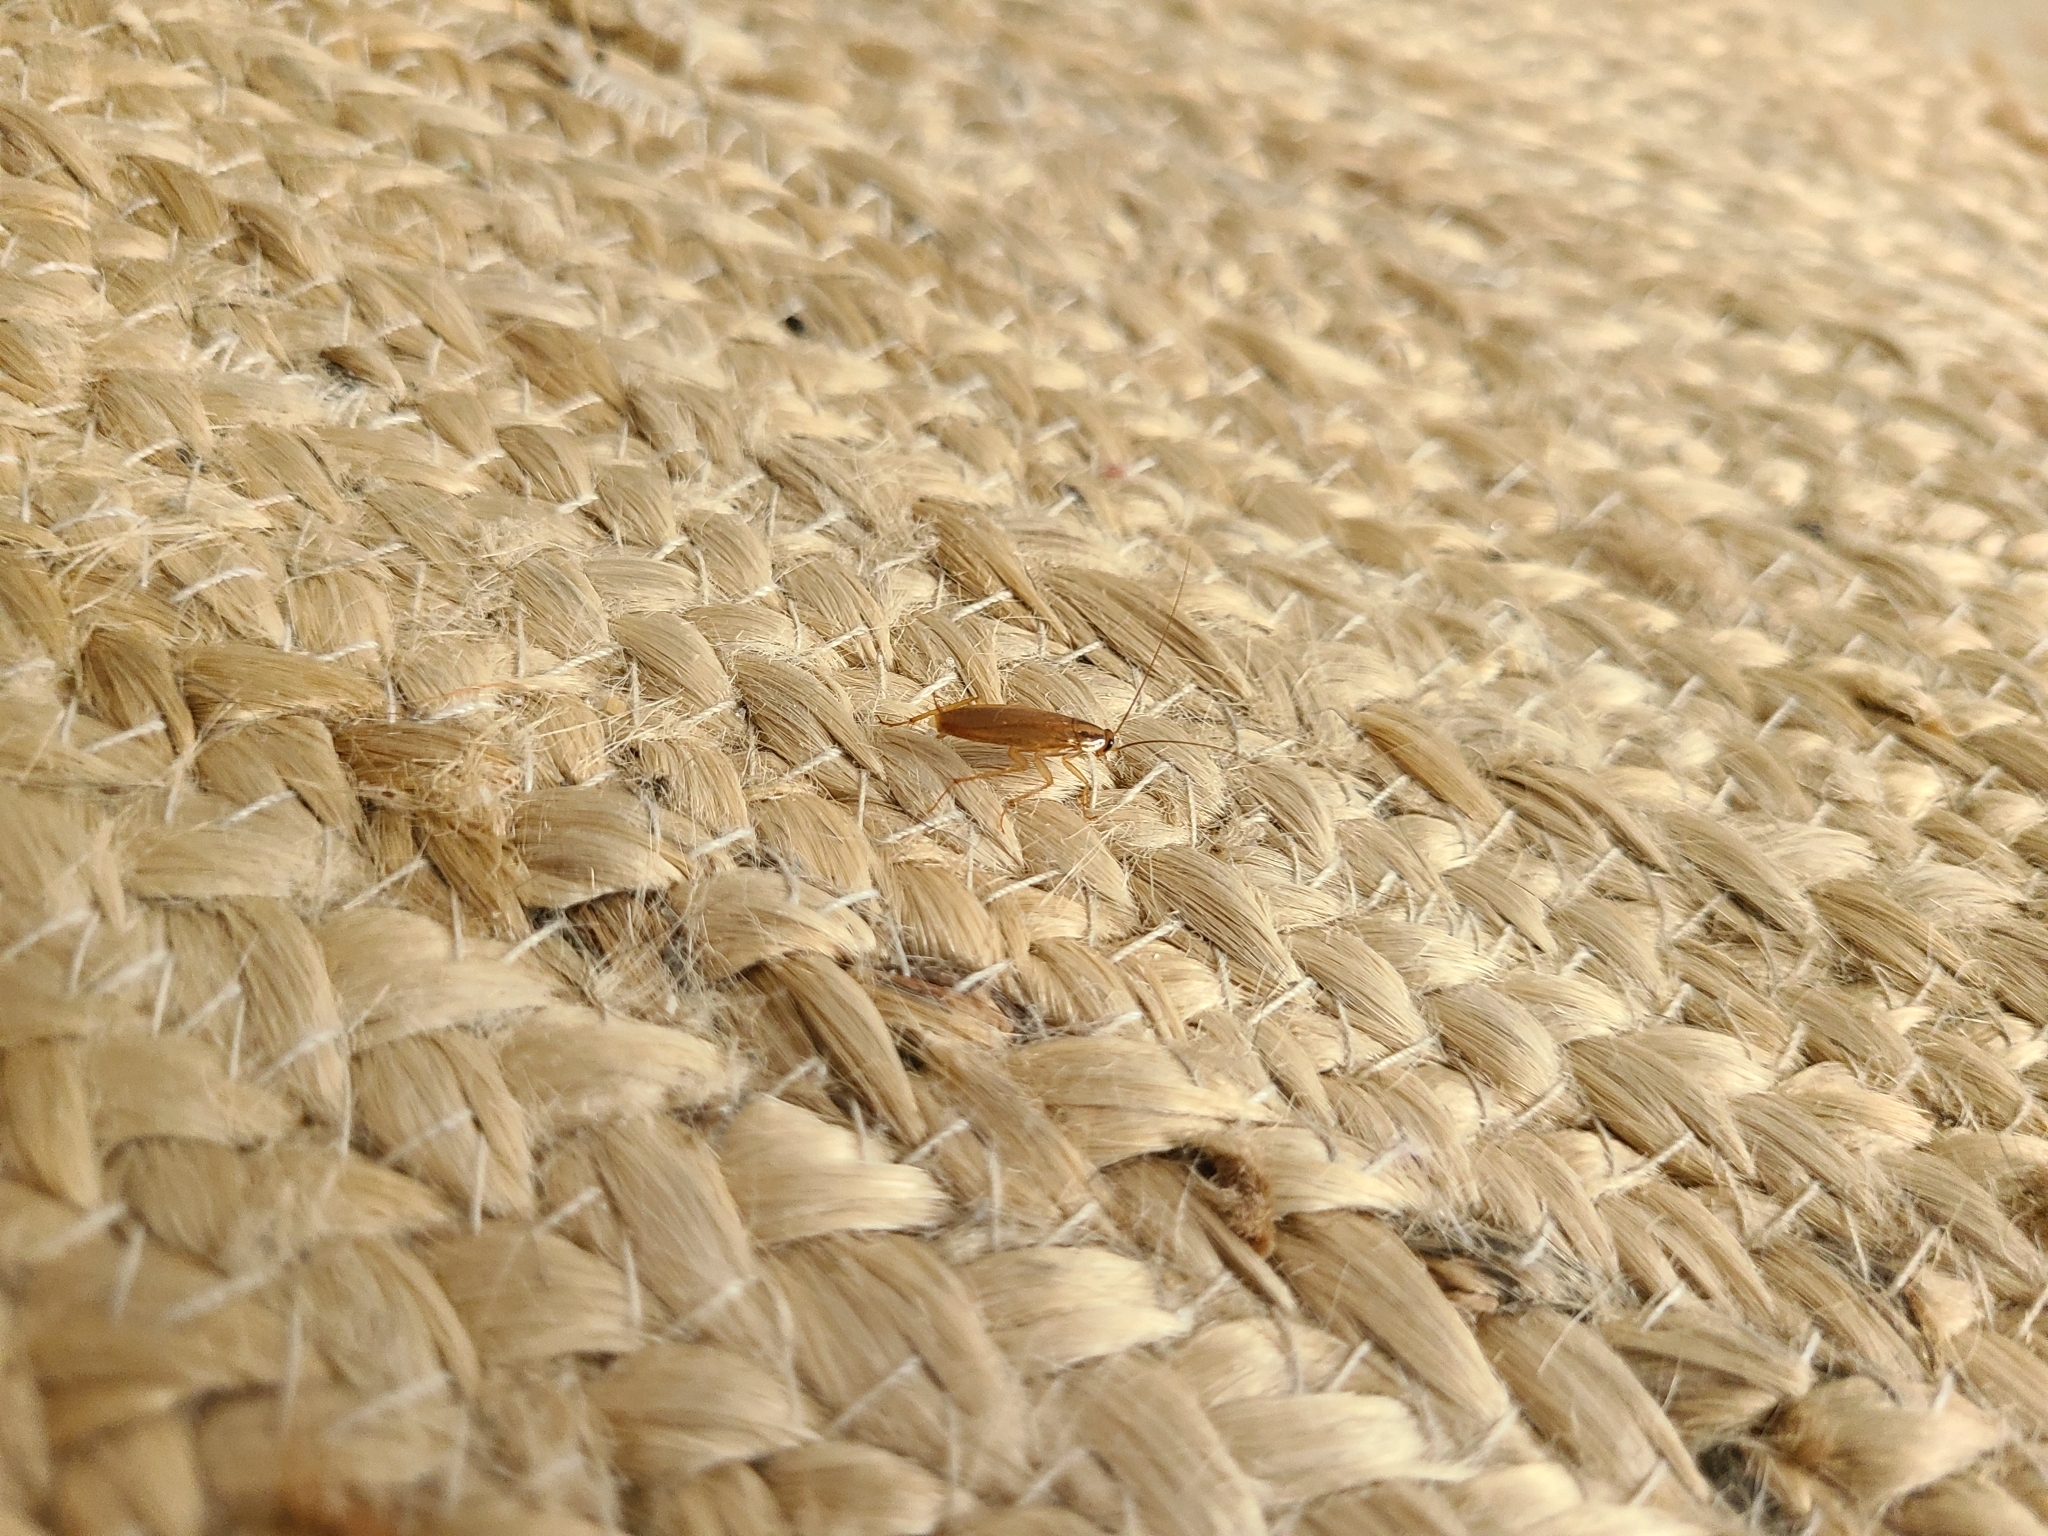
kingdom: Animalia
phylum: Arthropoda
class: Insecta
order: Blattodea
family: Ectobiidae
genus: Blattella
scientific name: Blattella germanica
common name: German cockroach
